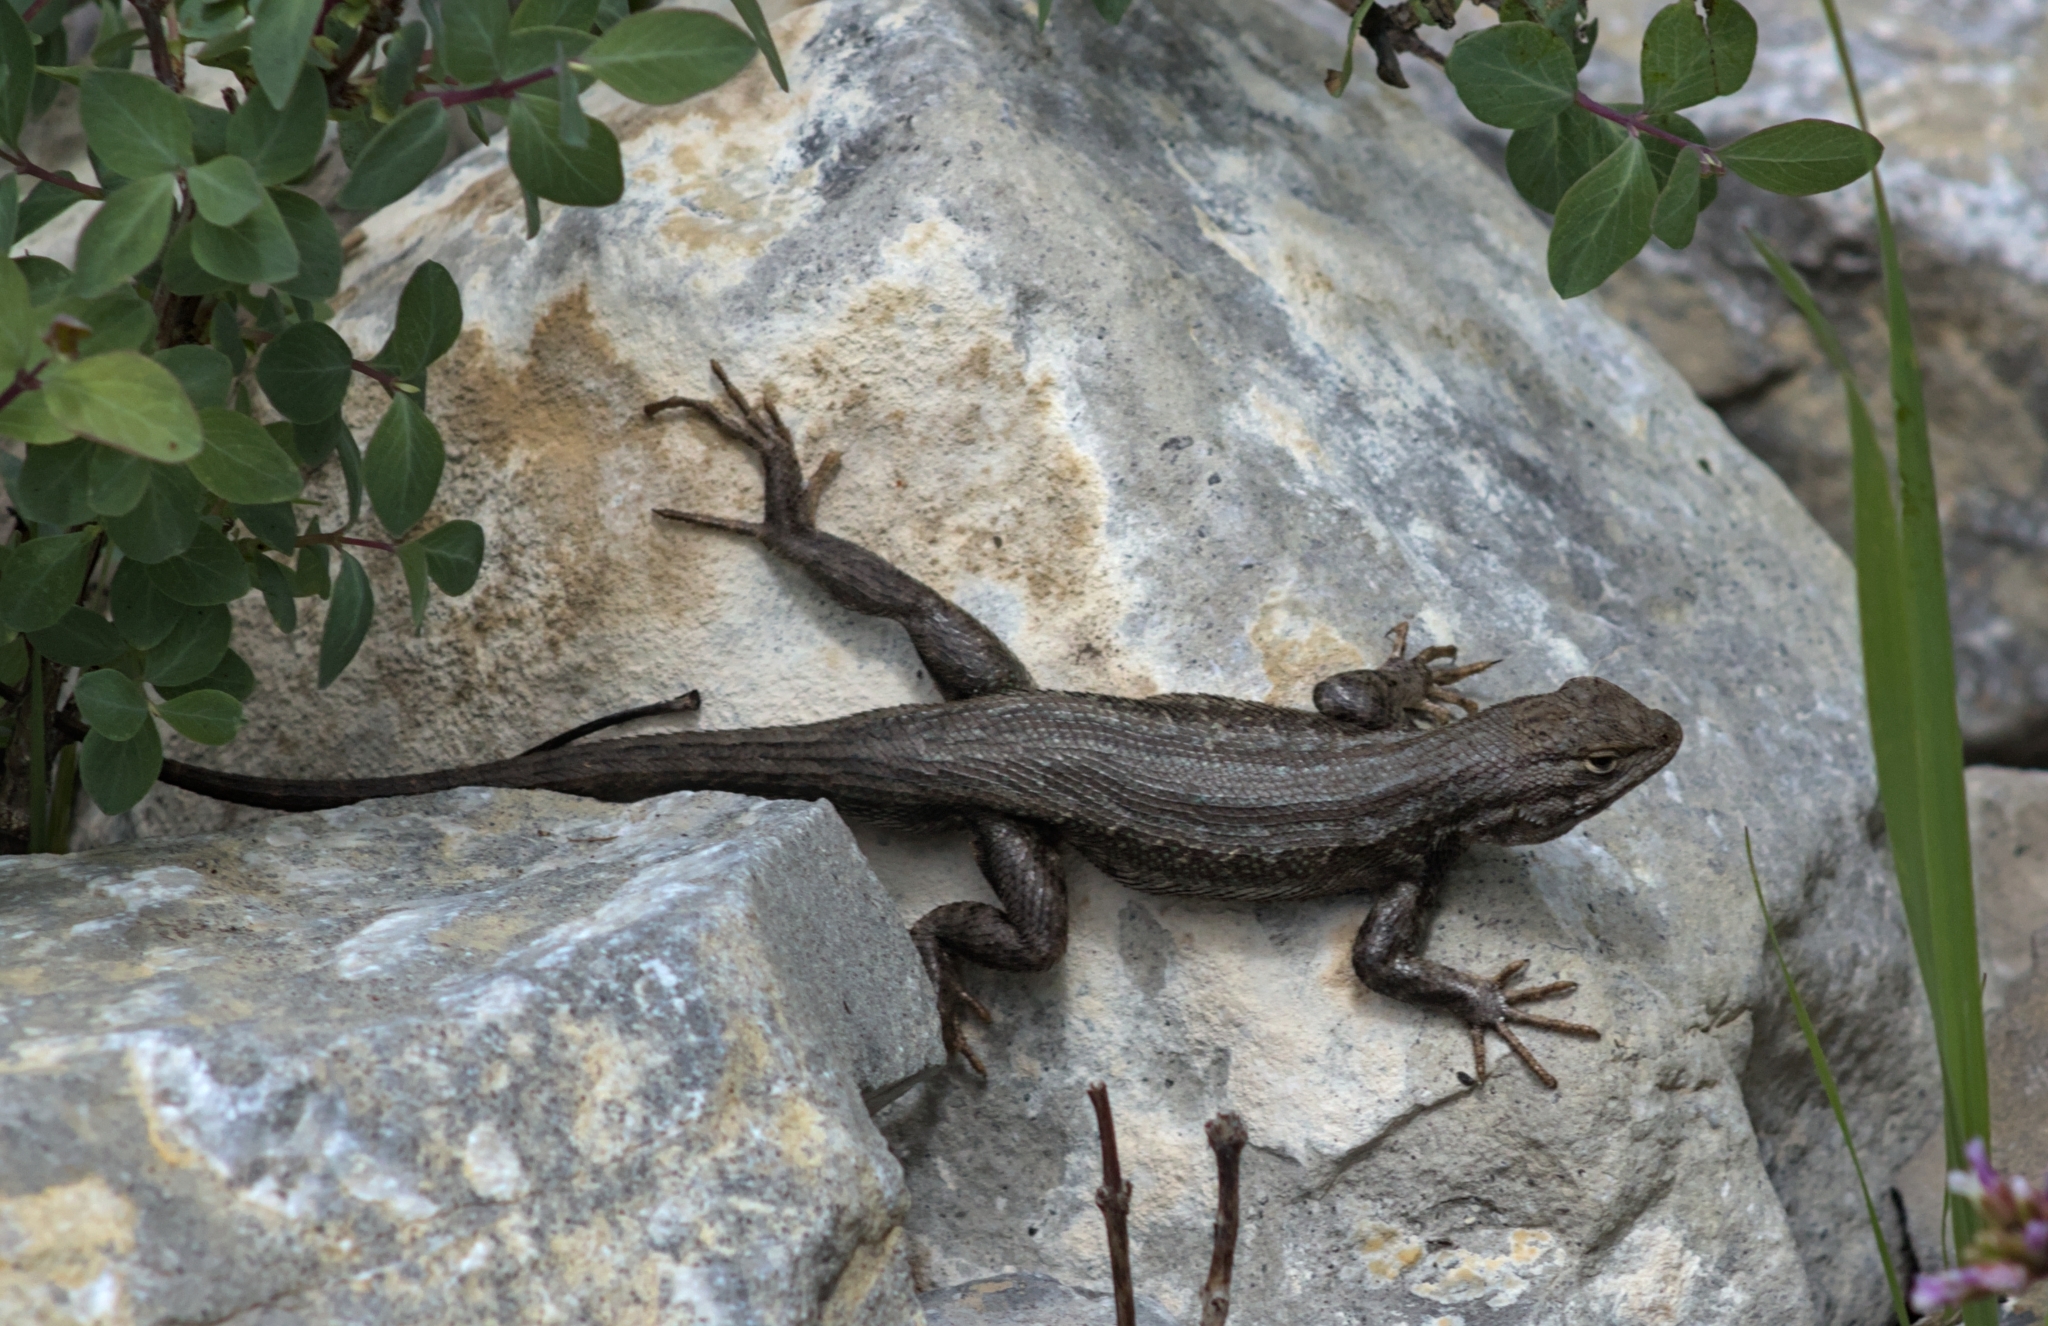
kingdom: Animalia
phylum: Chordata
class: Squamata
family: Phrynosomatidae
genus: Sceloporus
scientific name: Sceloporus graciosus
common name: Sagebrush lizard
